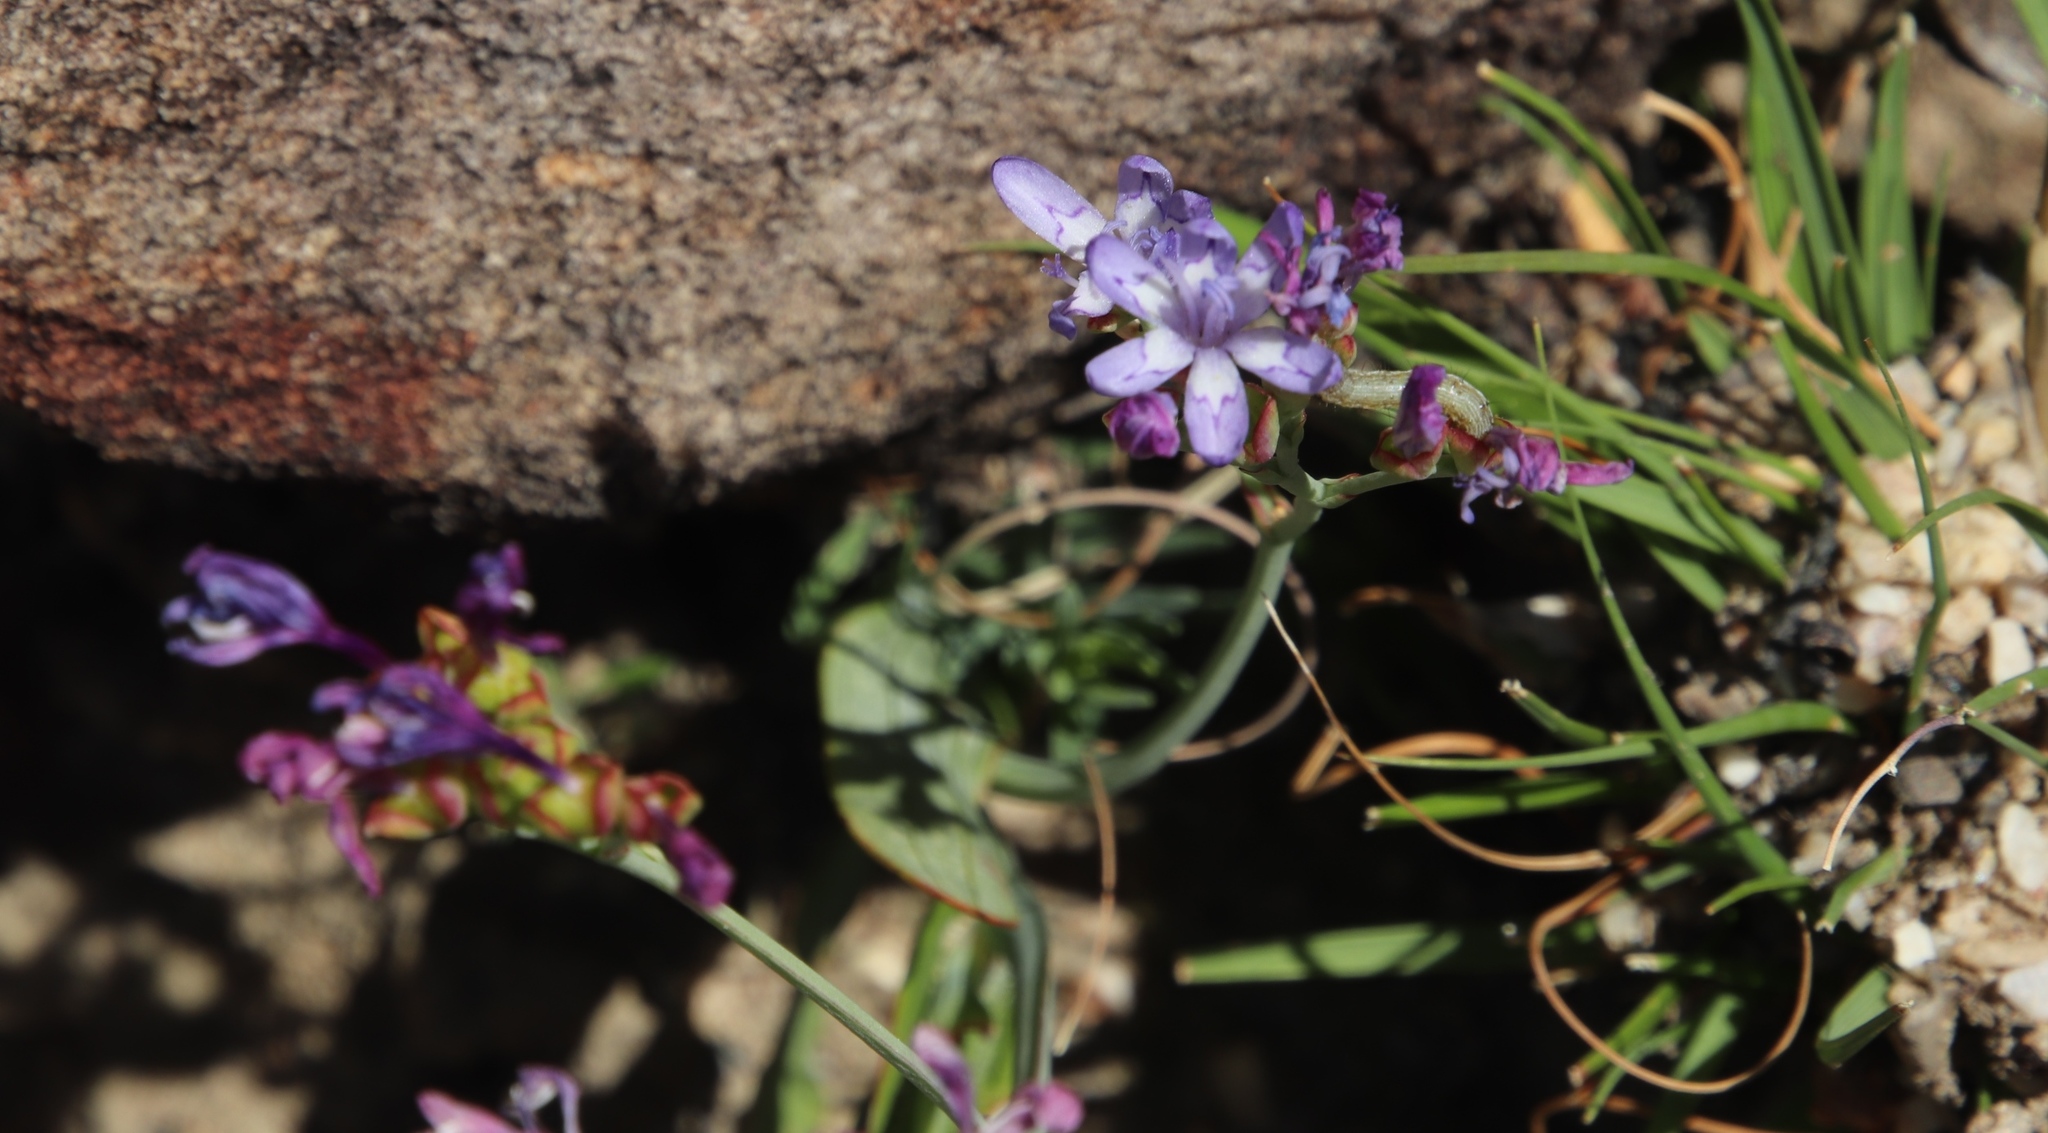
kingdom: Plantae
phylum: Tracheophyta
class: Liliopsida
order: Asparagales
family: Iridaceae
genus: Codonorhiza
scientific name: Codonorhiza corymbosa
